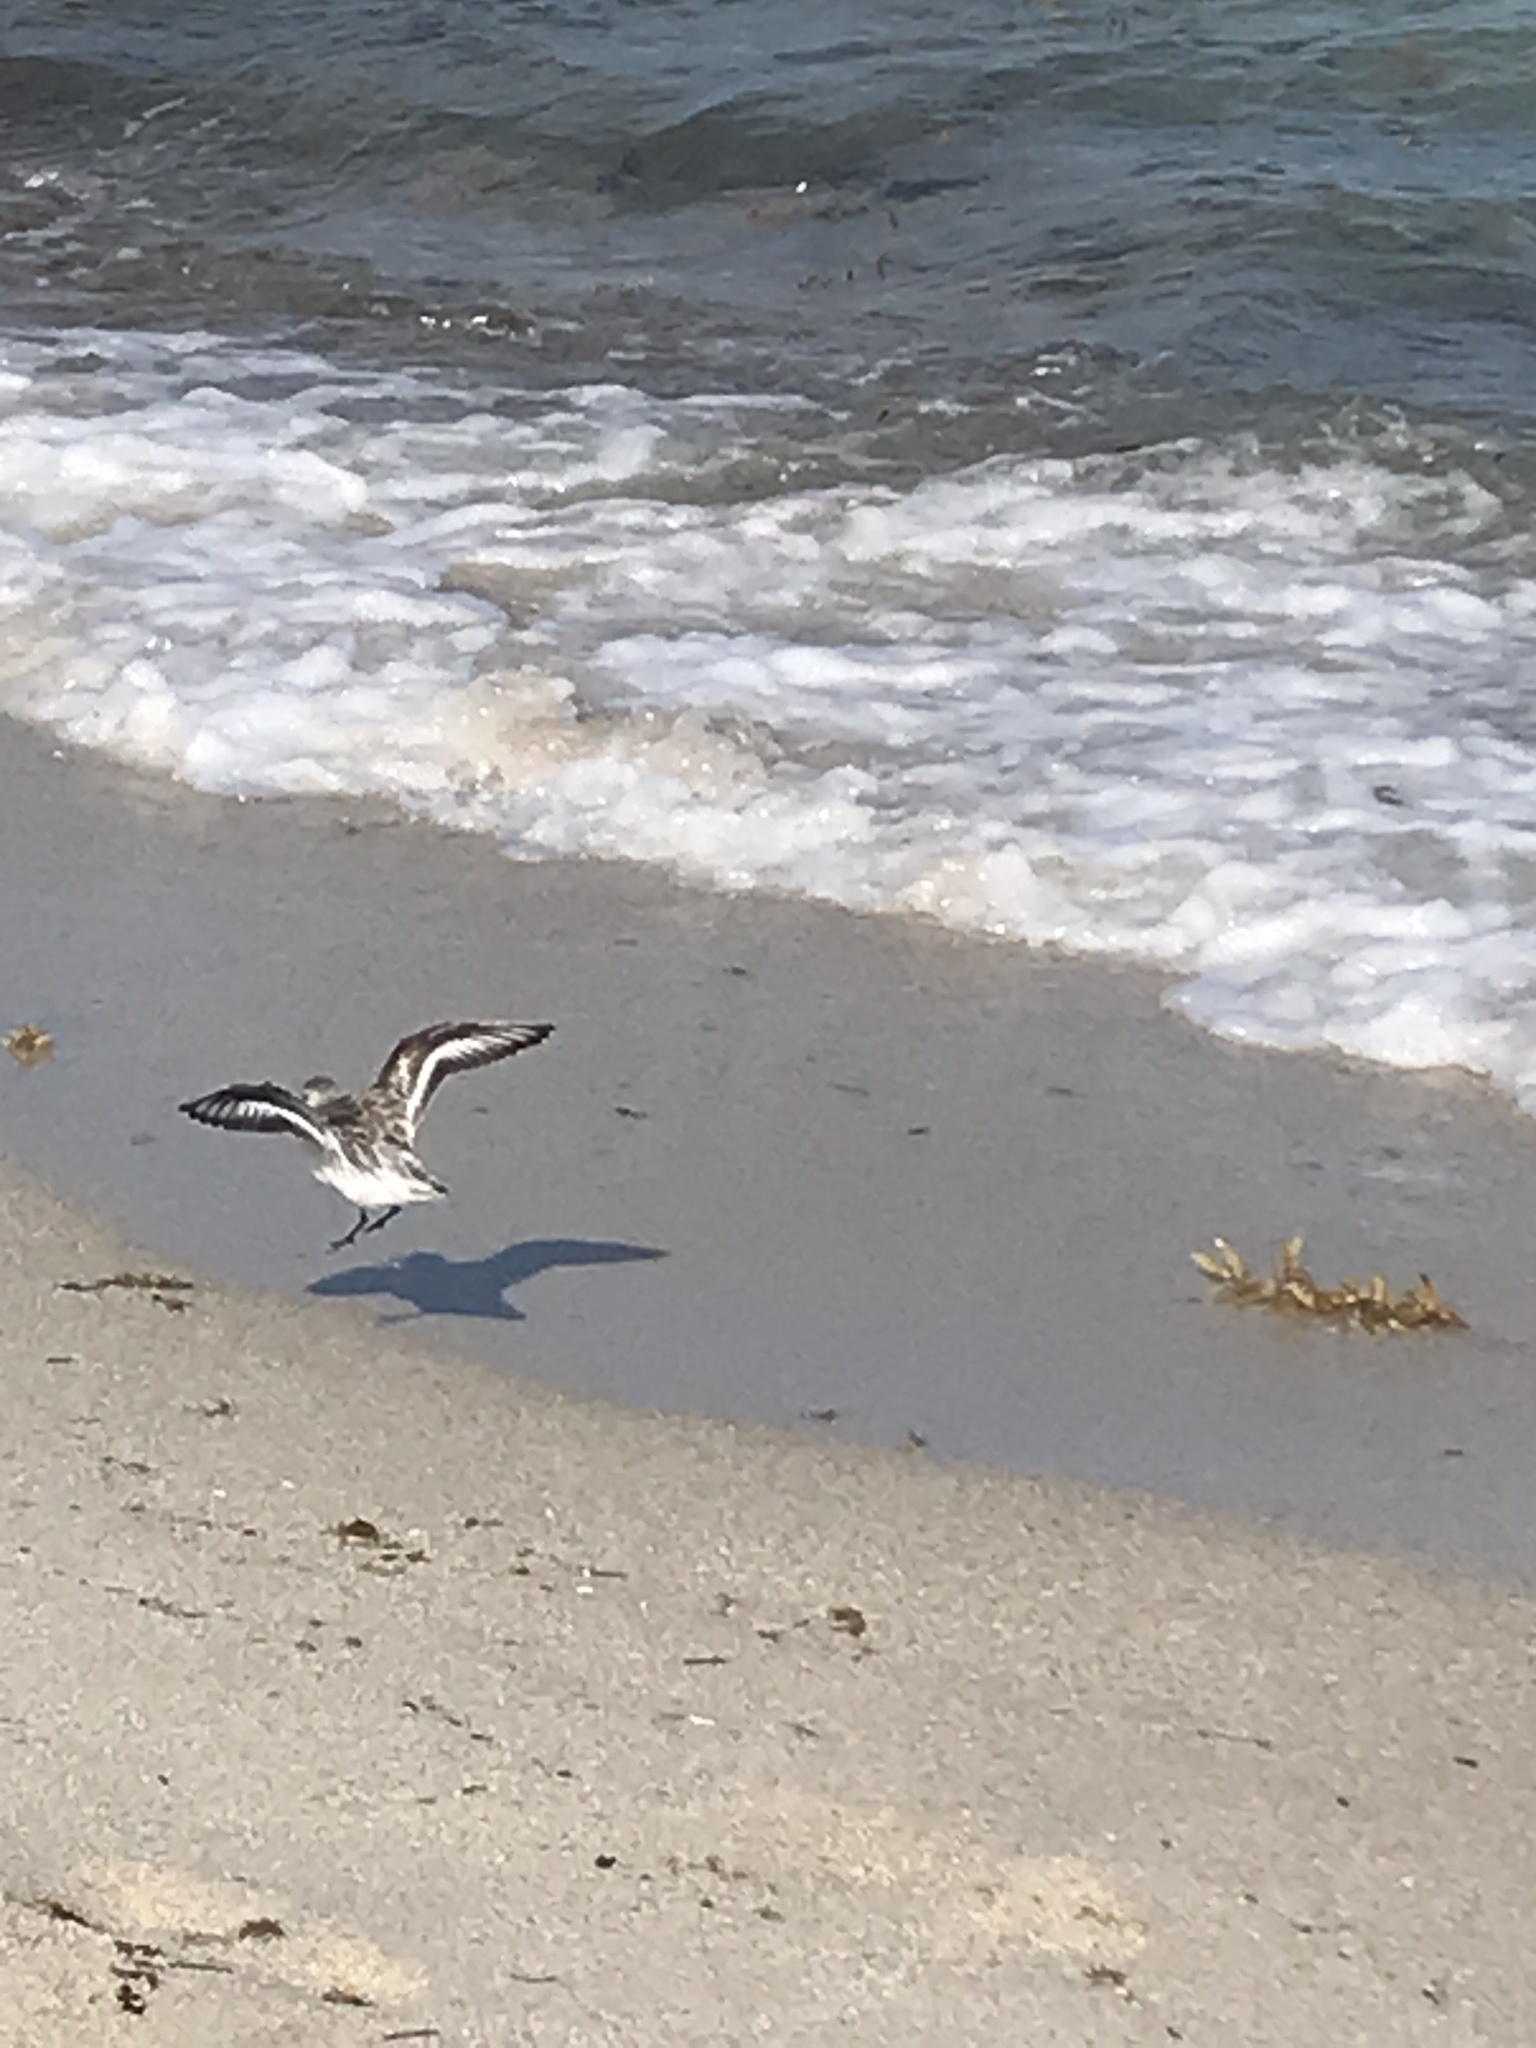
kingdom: Animalia
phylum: Chordata
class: Aves
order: Charadriiformes
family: Scolopacidae
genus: Calidris
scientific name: Calidris alba
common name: Sanderling
